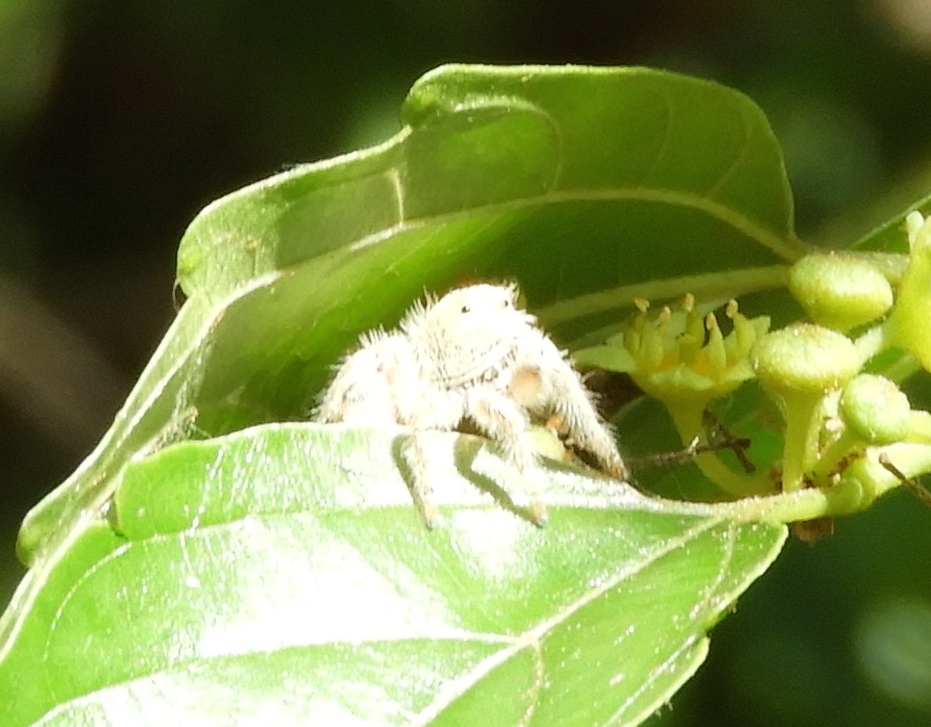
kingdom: Animalia
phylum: Arthropoda
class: Arachnida
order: Araneae
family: Salticidae
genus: Paraphidippus
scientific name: Paraphidippus fartilis
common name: Jumping spiders
